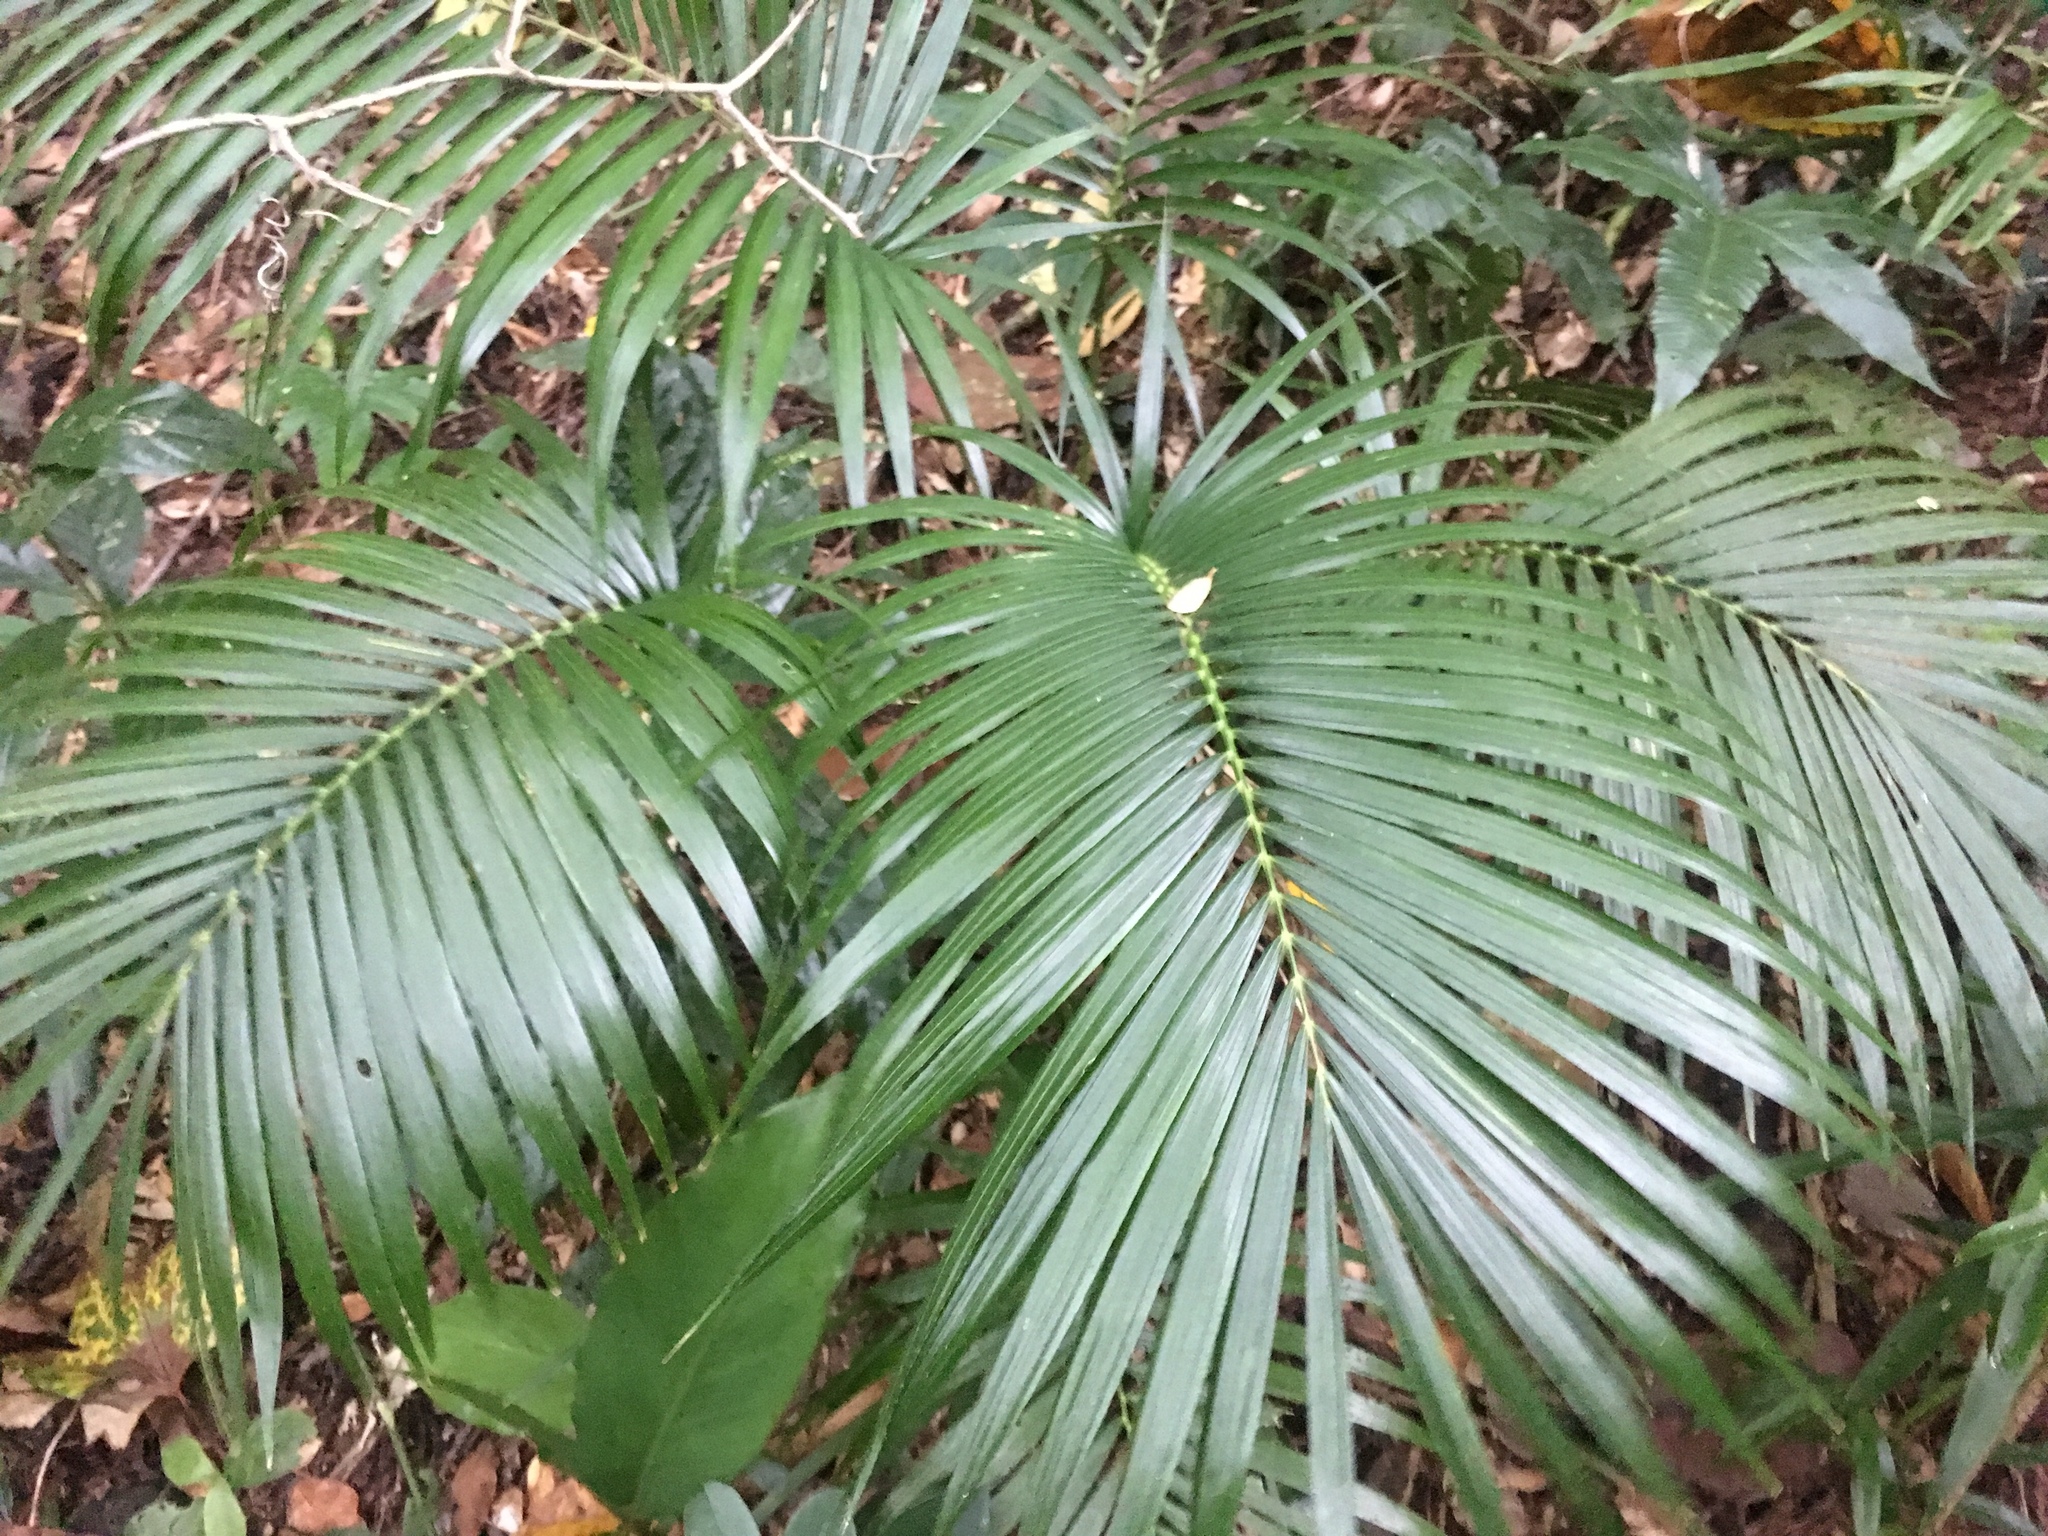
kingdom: Plantae
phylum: Tracheophyta
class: Liliopsida
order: Arecales
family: Arecaceae
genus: Calamus
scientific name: Calamus siphonospathus
